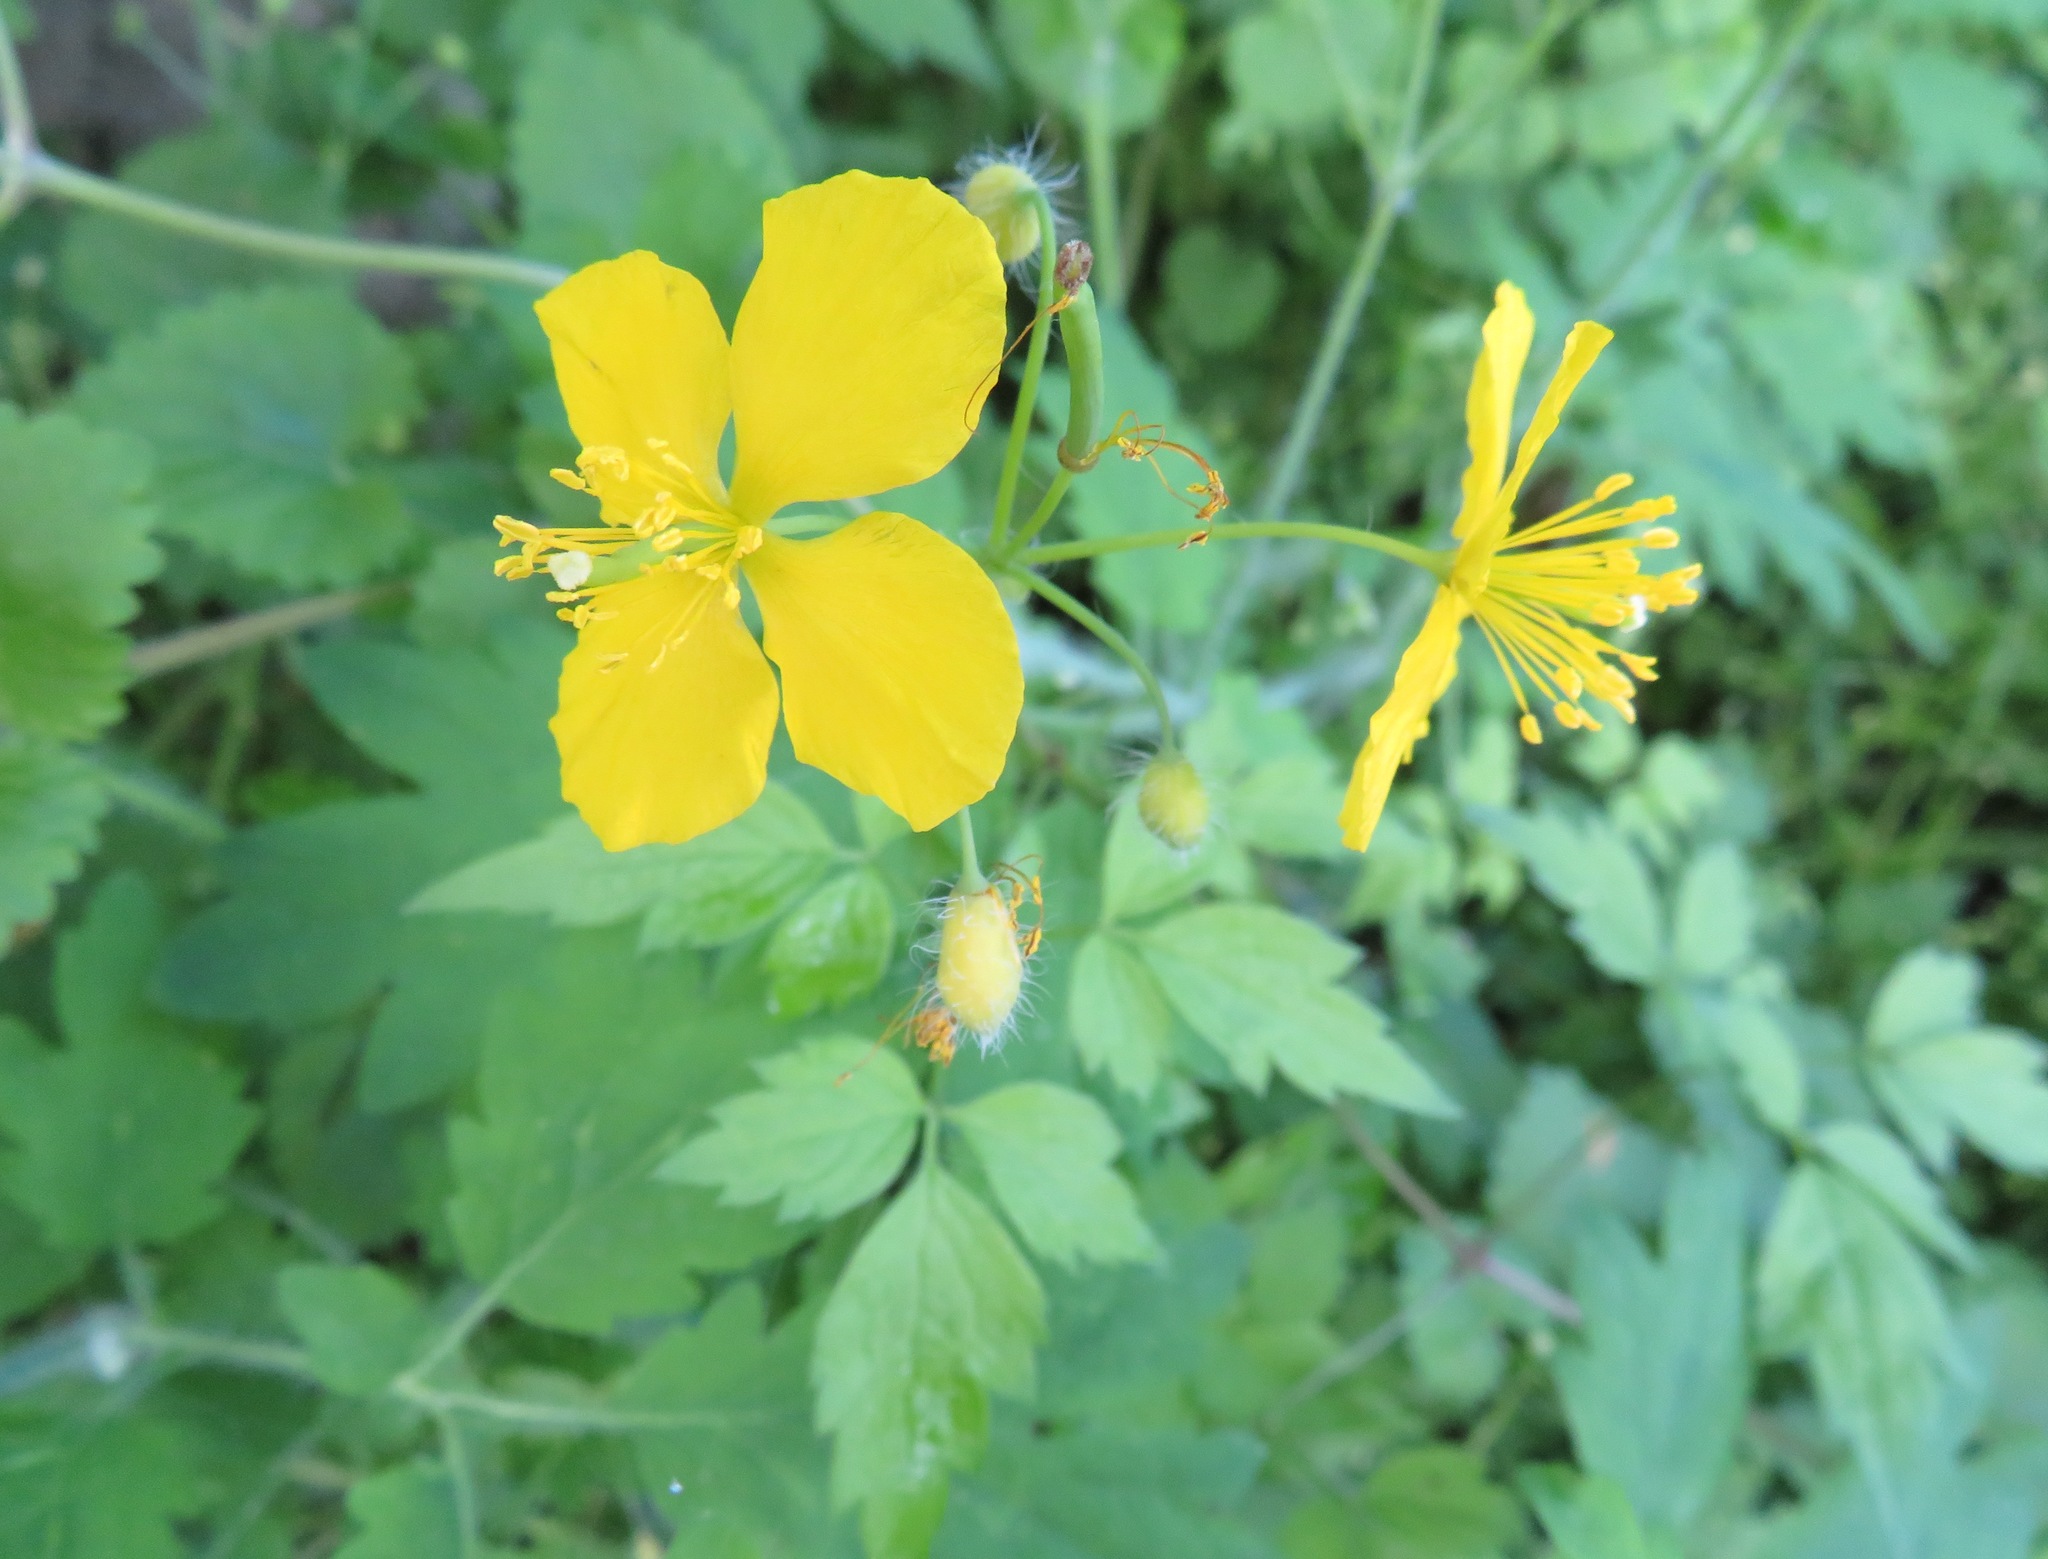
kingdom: Plantae
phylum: Tracheophyta
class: Magnoliopsida
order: Ranunculales
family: Papaveraceae
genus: Chelidonium
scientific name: Chelidonium majus
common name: Greater celandine
